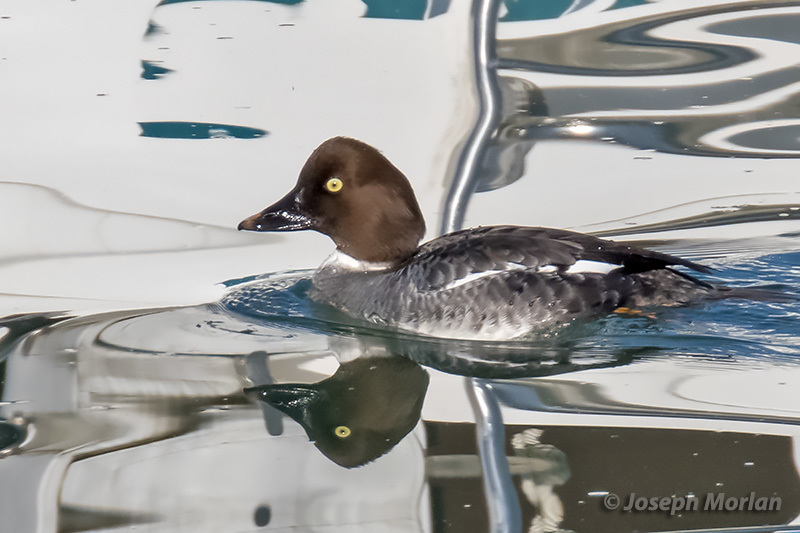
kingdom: Animalia
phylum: Chordata
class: Aves
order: Anseriformes
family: Anatidae
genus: Bucephala
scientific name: Bucephala clangula
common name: Common goldeneye
